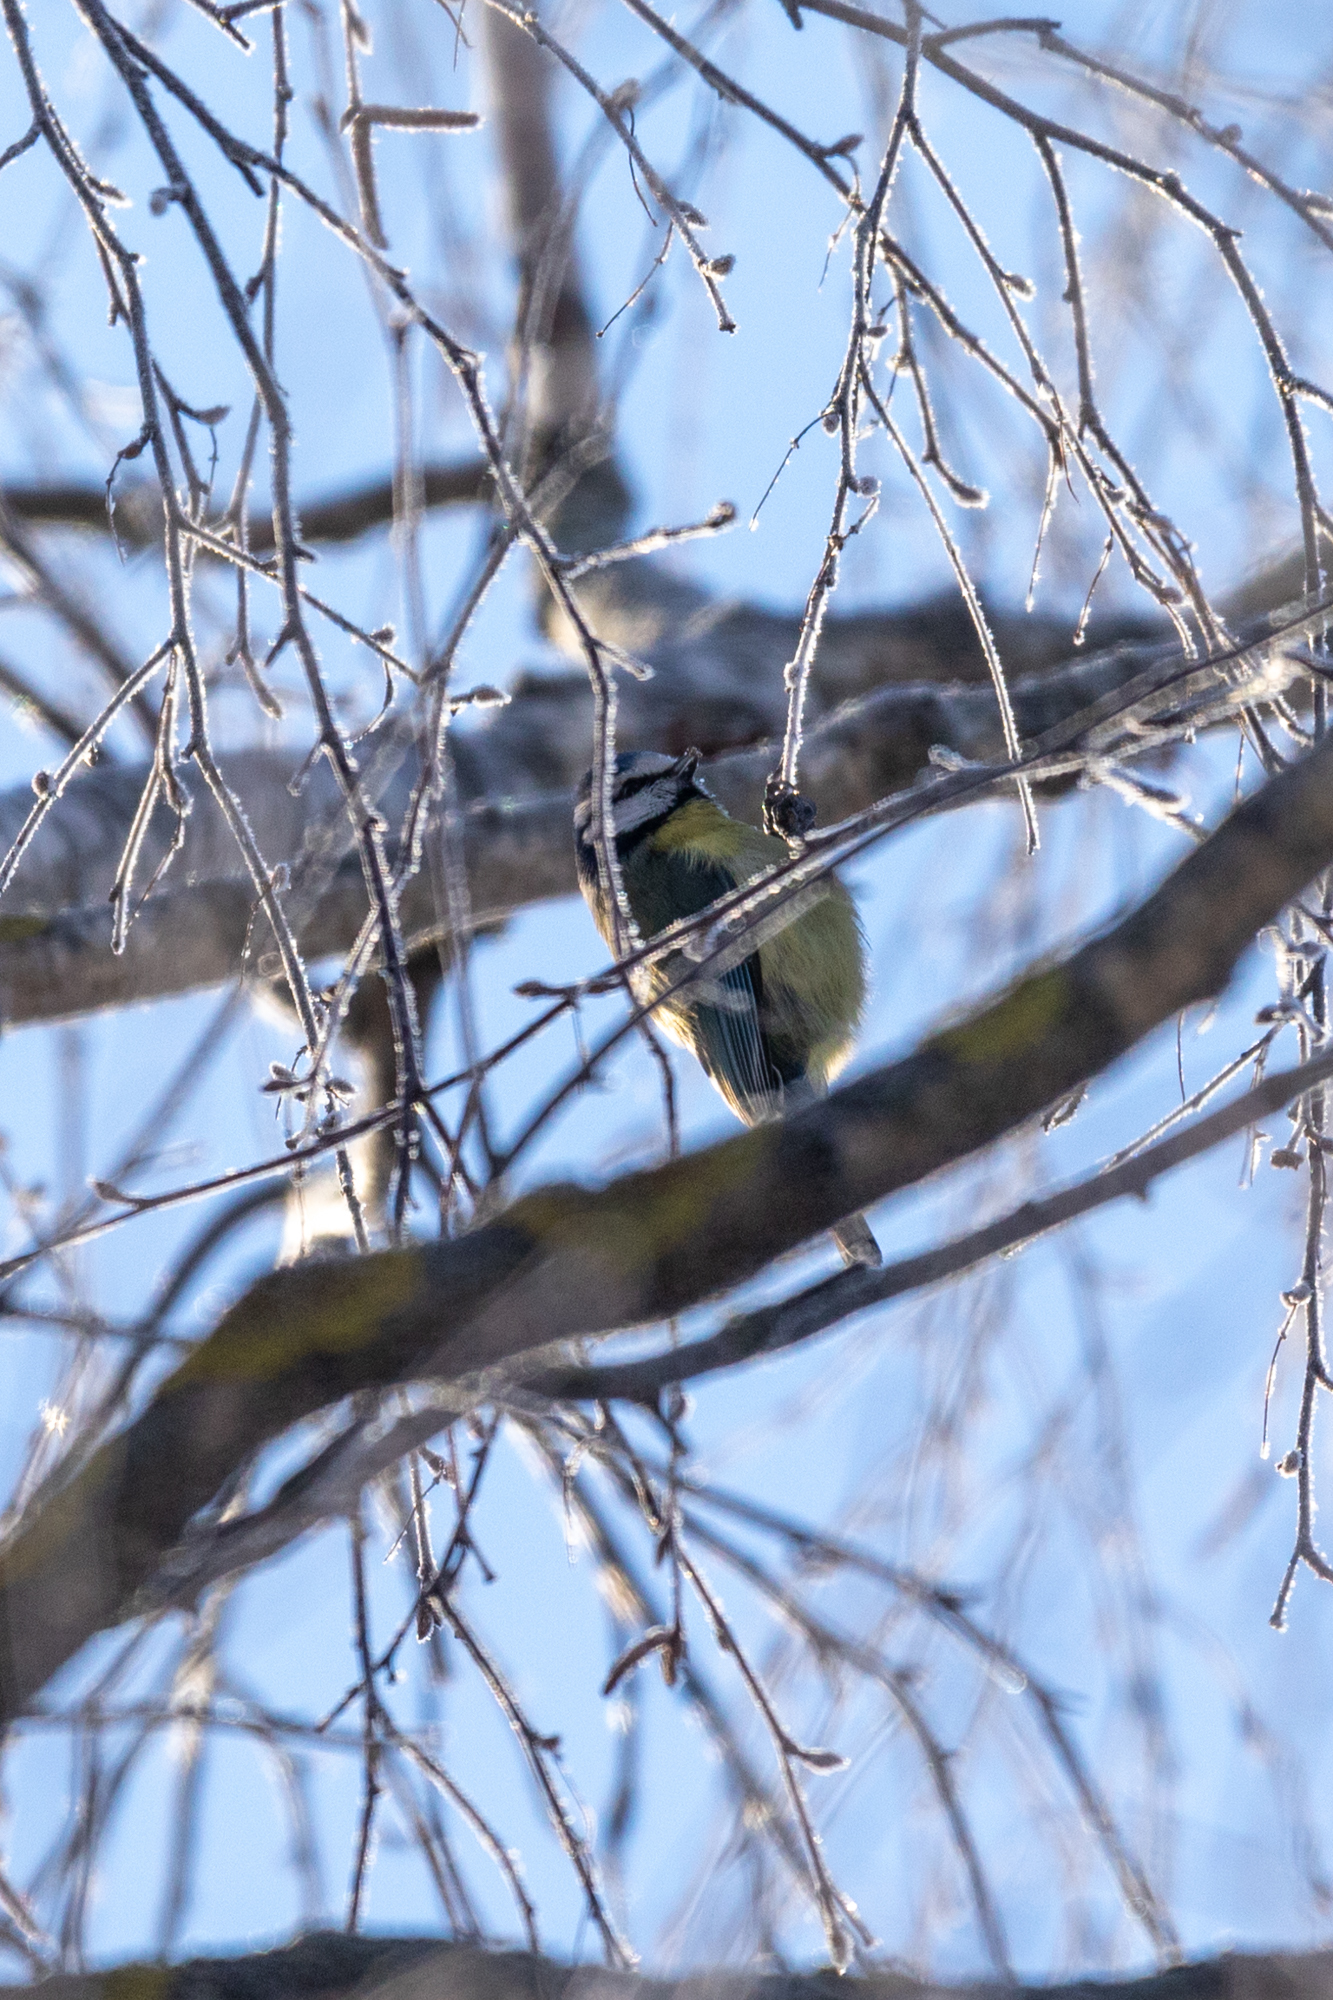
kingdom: Animalia
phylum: Chordata
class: Aves
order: Passeriformes
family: Paridae
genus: Cyanistes
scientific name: Cyanistes caeruleus
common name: Eurasian blue tit
